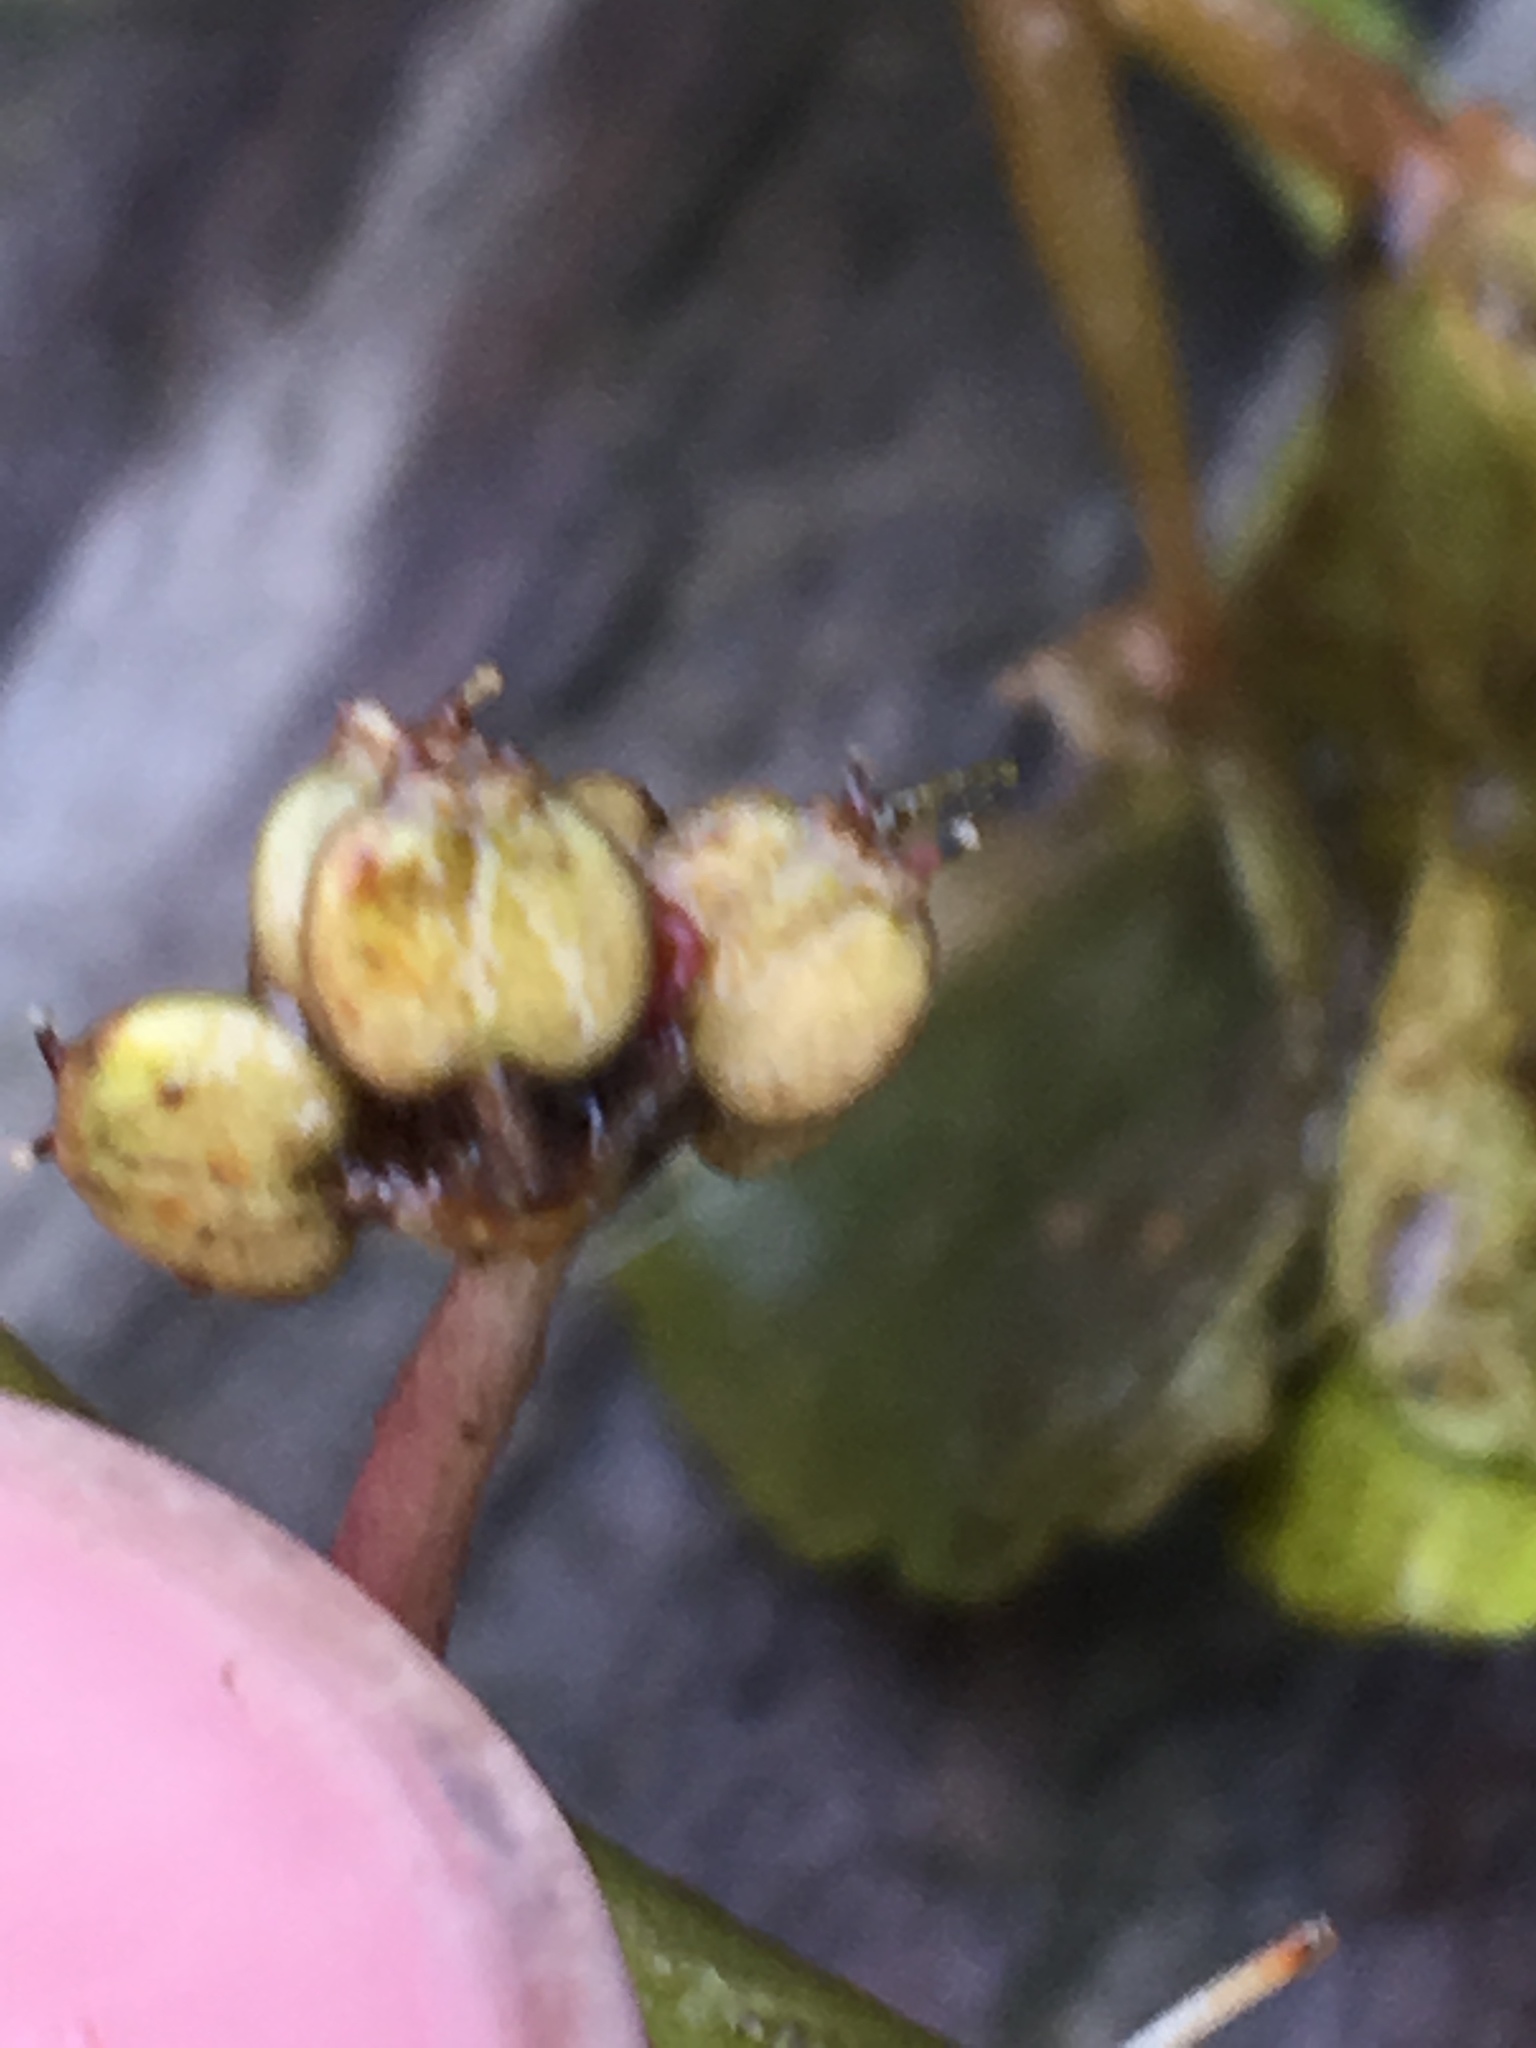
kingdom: Plantae
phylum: Tracheophyta
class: Magnoliopsida
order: Apiales
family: Araliaceae
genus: Hydrocotyle
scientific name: Hydrocotyle ranunculoides
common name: Floating pennywort
